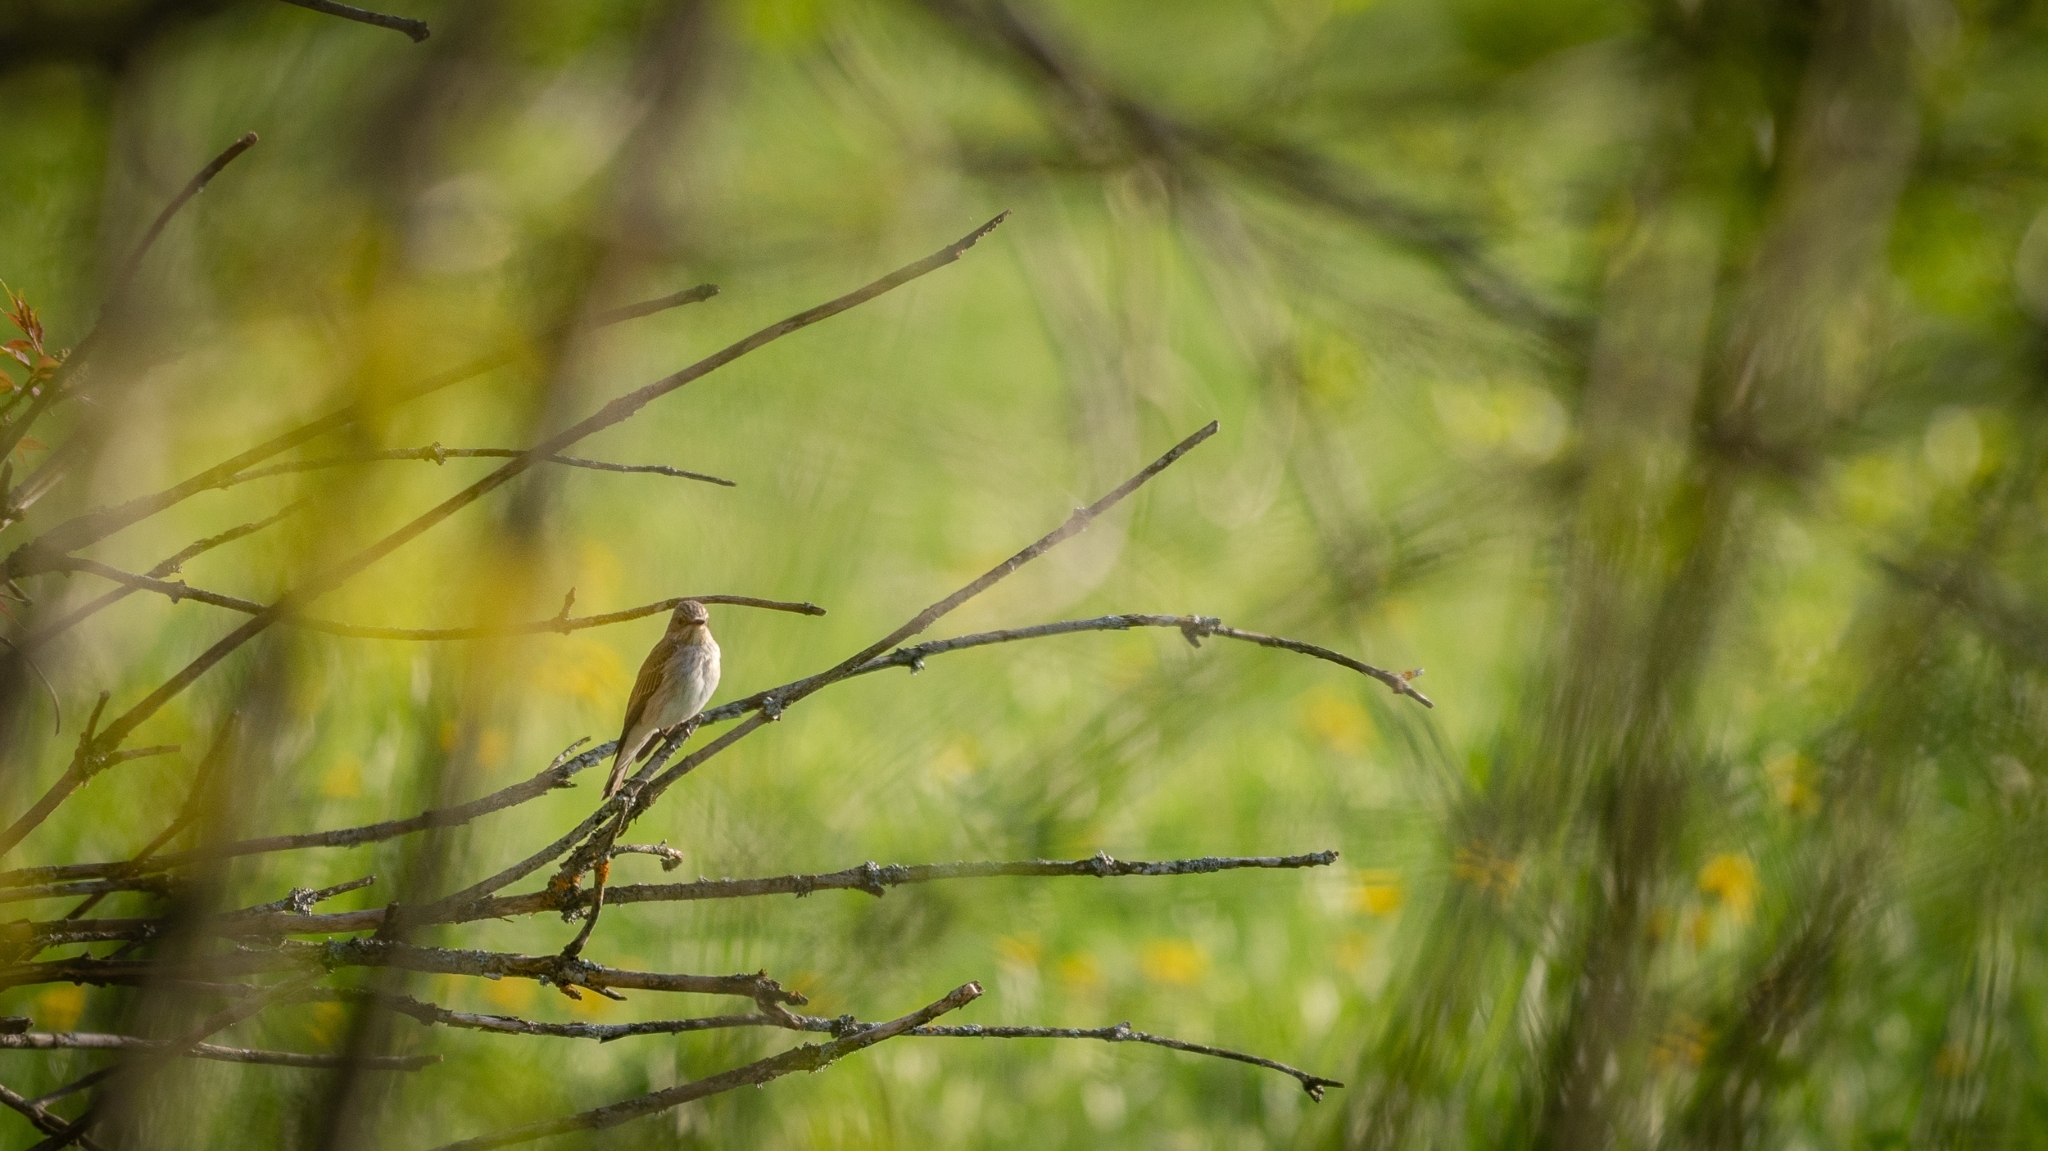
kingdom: Animalia
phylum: Chordata
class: Aves
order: Passeriformes
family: Muscicapidae
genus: Muscicapa
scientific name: Muscicapa striata
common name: Spotted flycatcher
